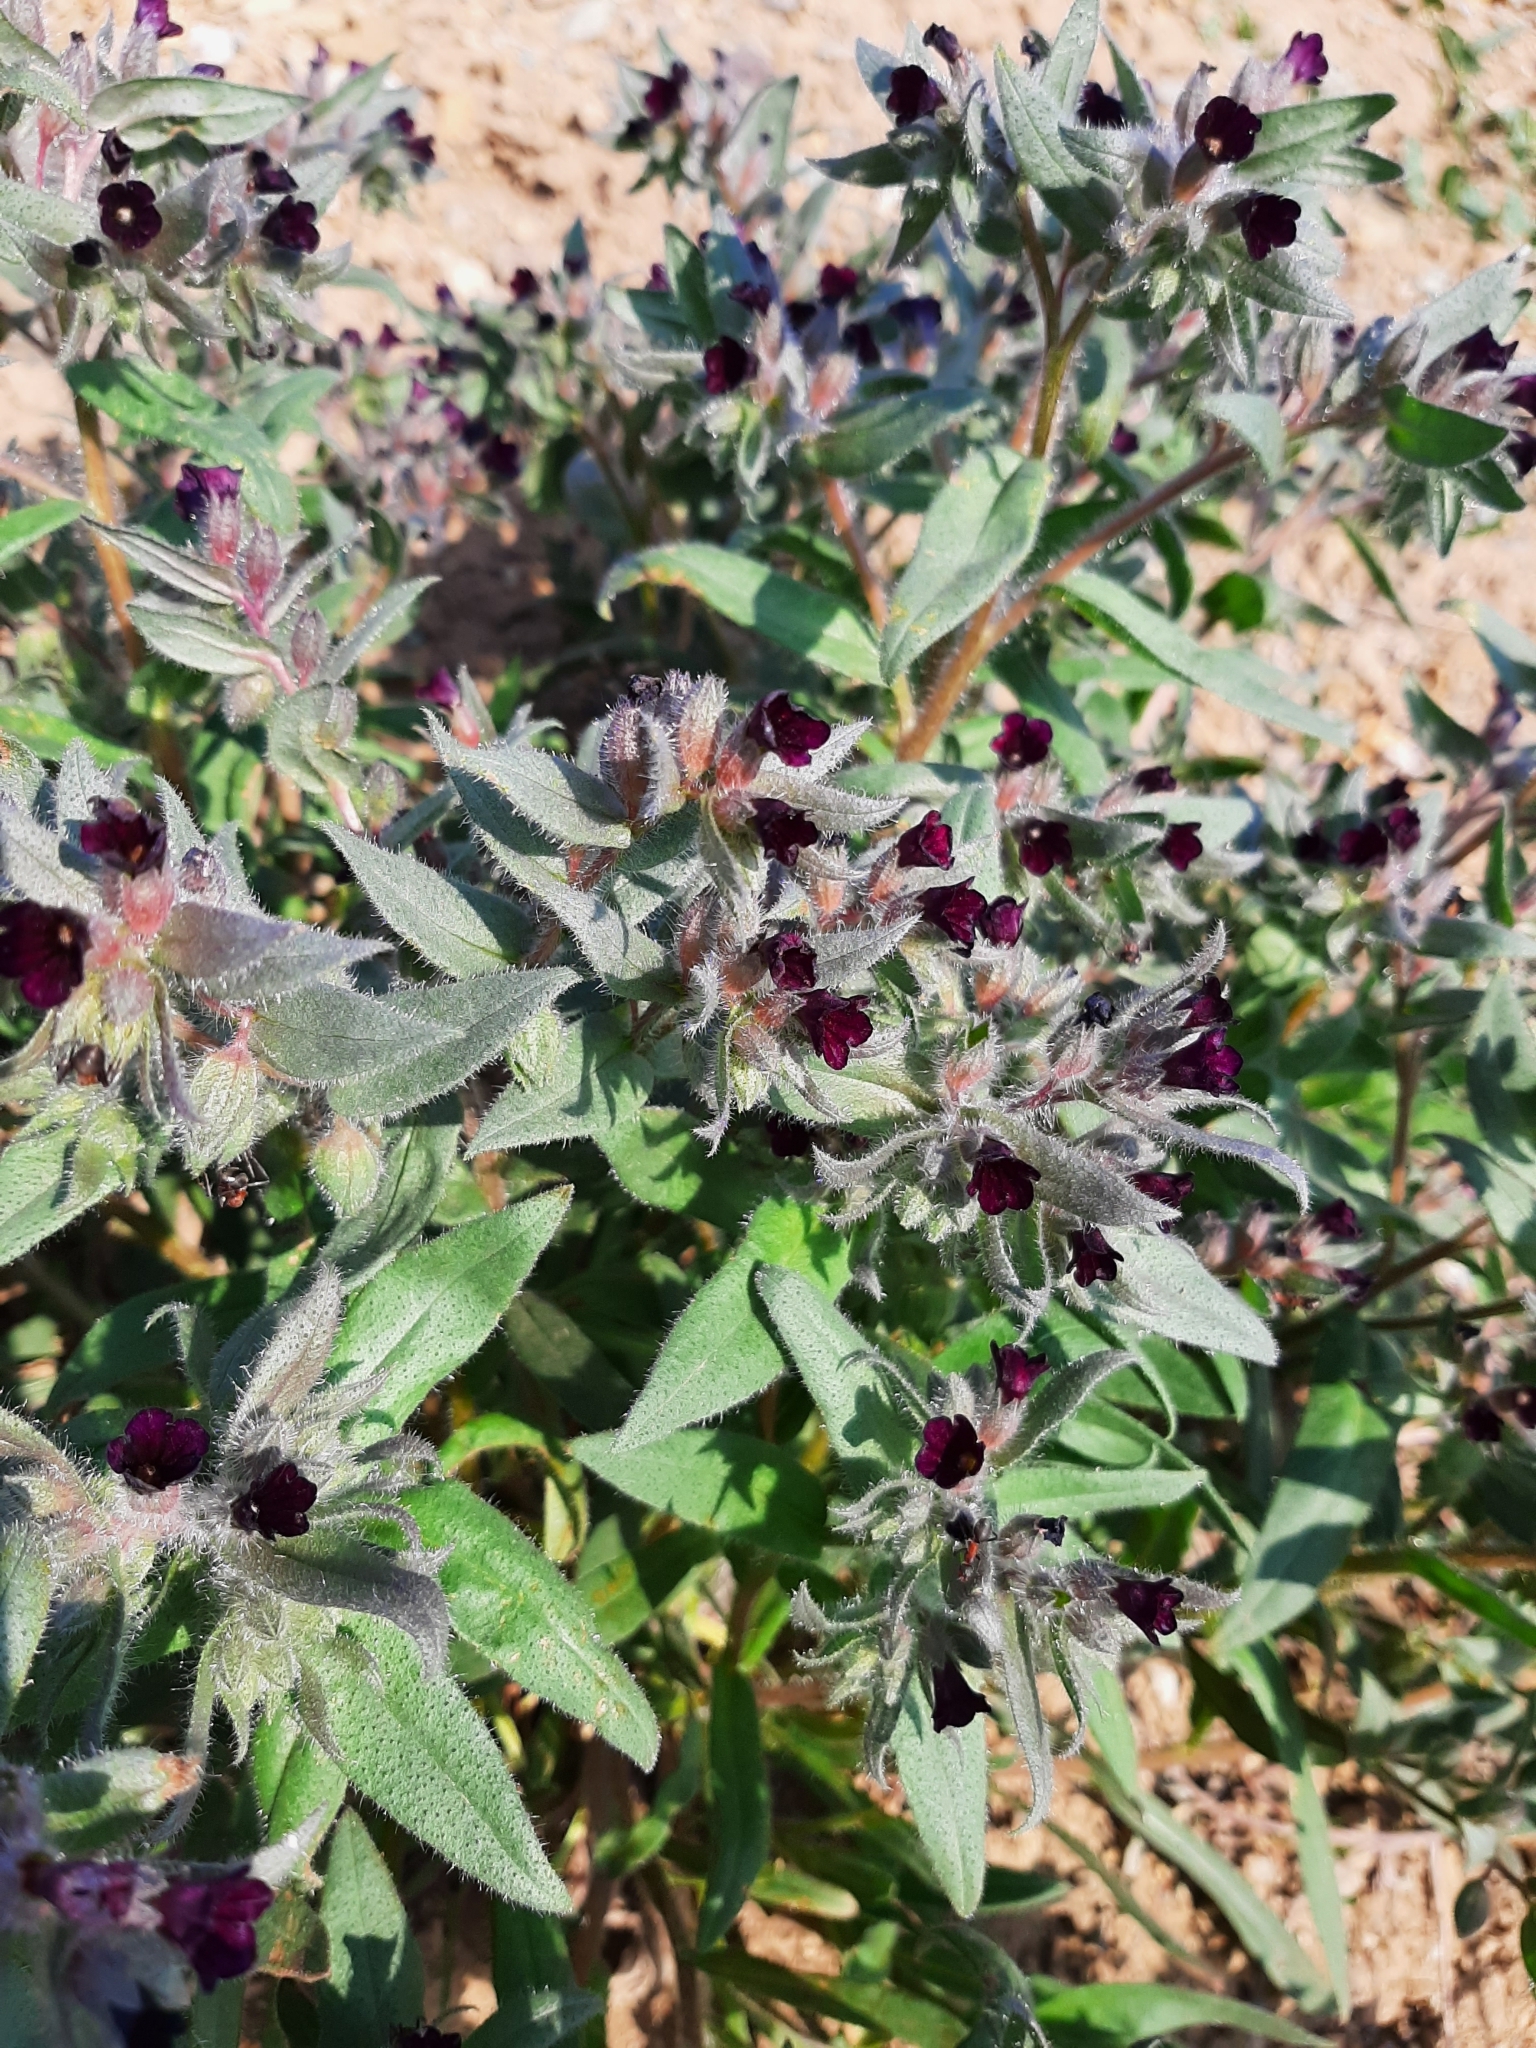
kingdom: Plantae
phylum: Tracheophyta
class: Magnoliopsida
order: Boraginales
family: Boraginaceae
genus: Nonea
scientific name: Nonea pulla
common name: Brown nonea
